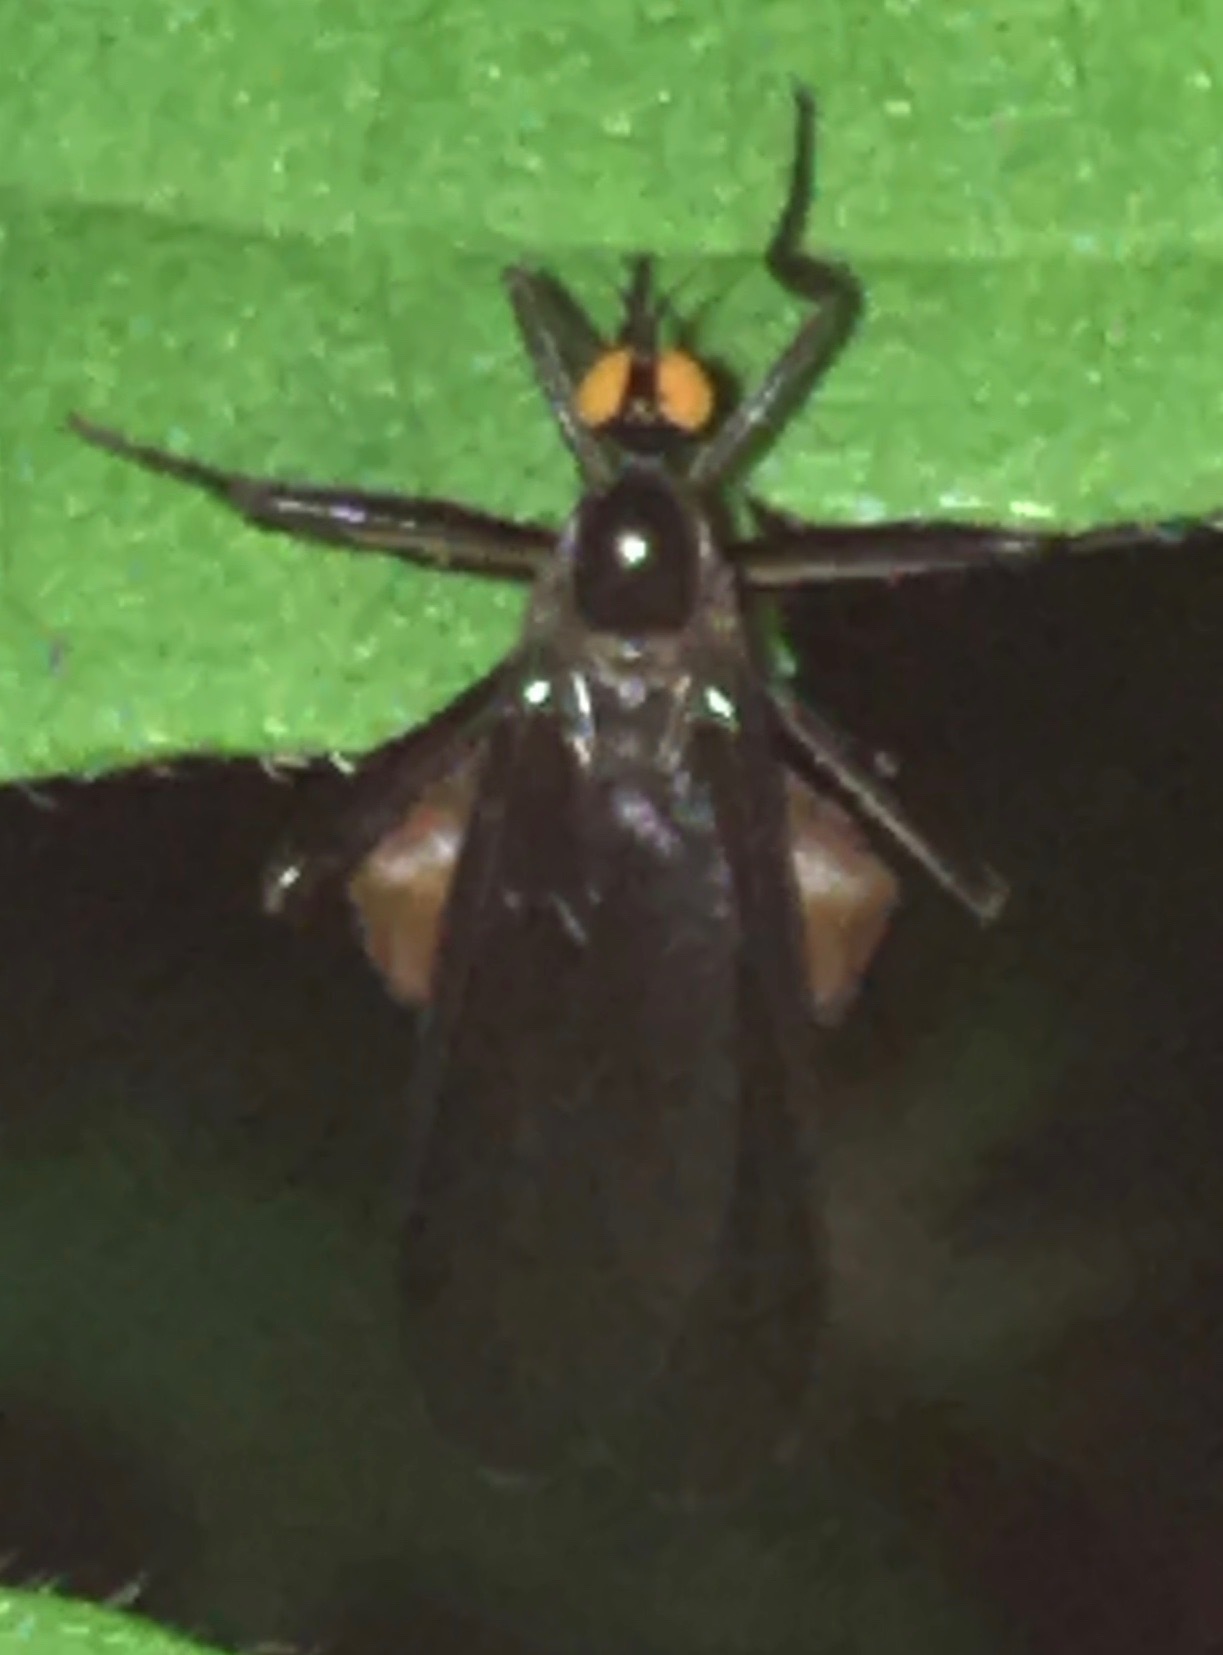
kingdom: Animalia
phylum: Arthropoda
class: Insecta
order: Diptera
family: Empididae
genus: Rhamphomyia
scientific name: Rhamphomyia longicauda
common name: Long-tailed dance fly
